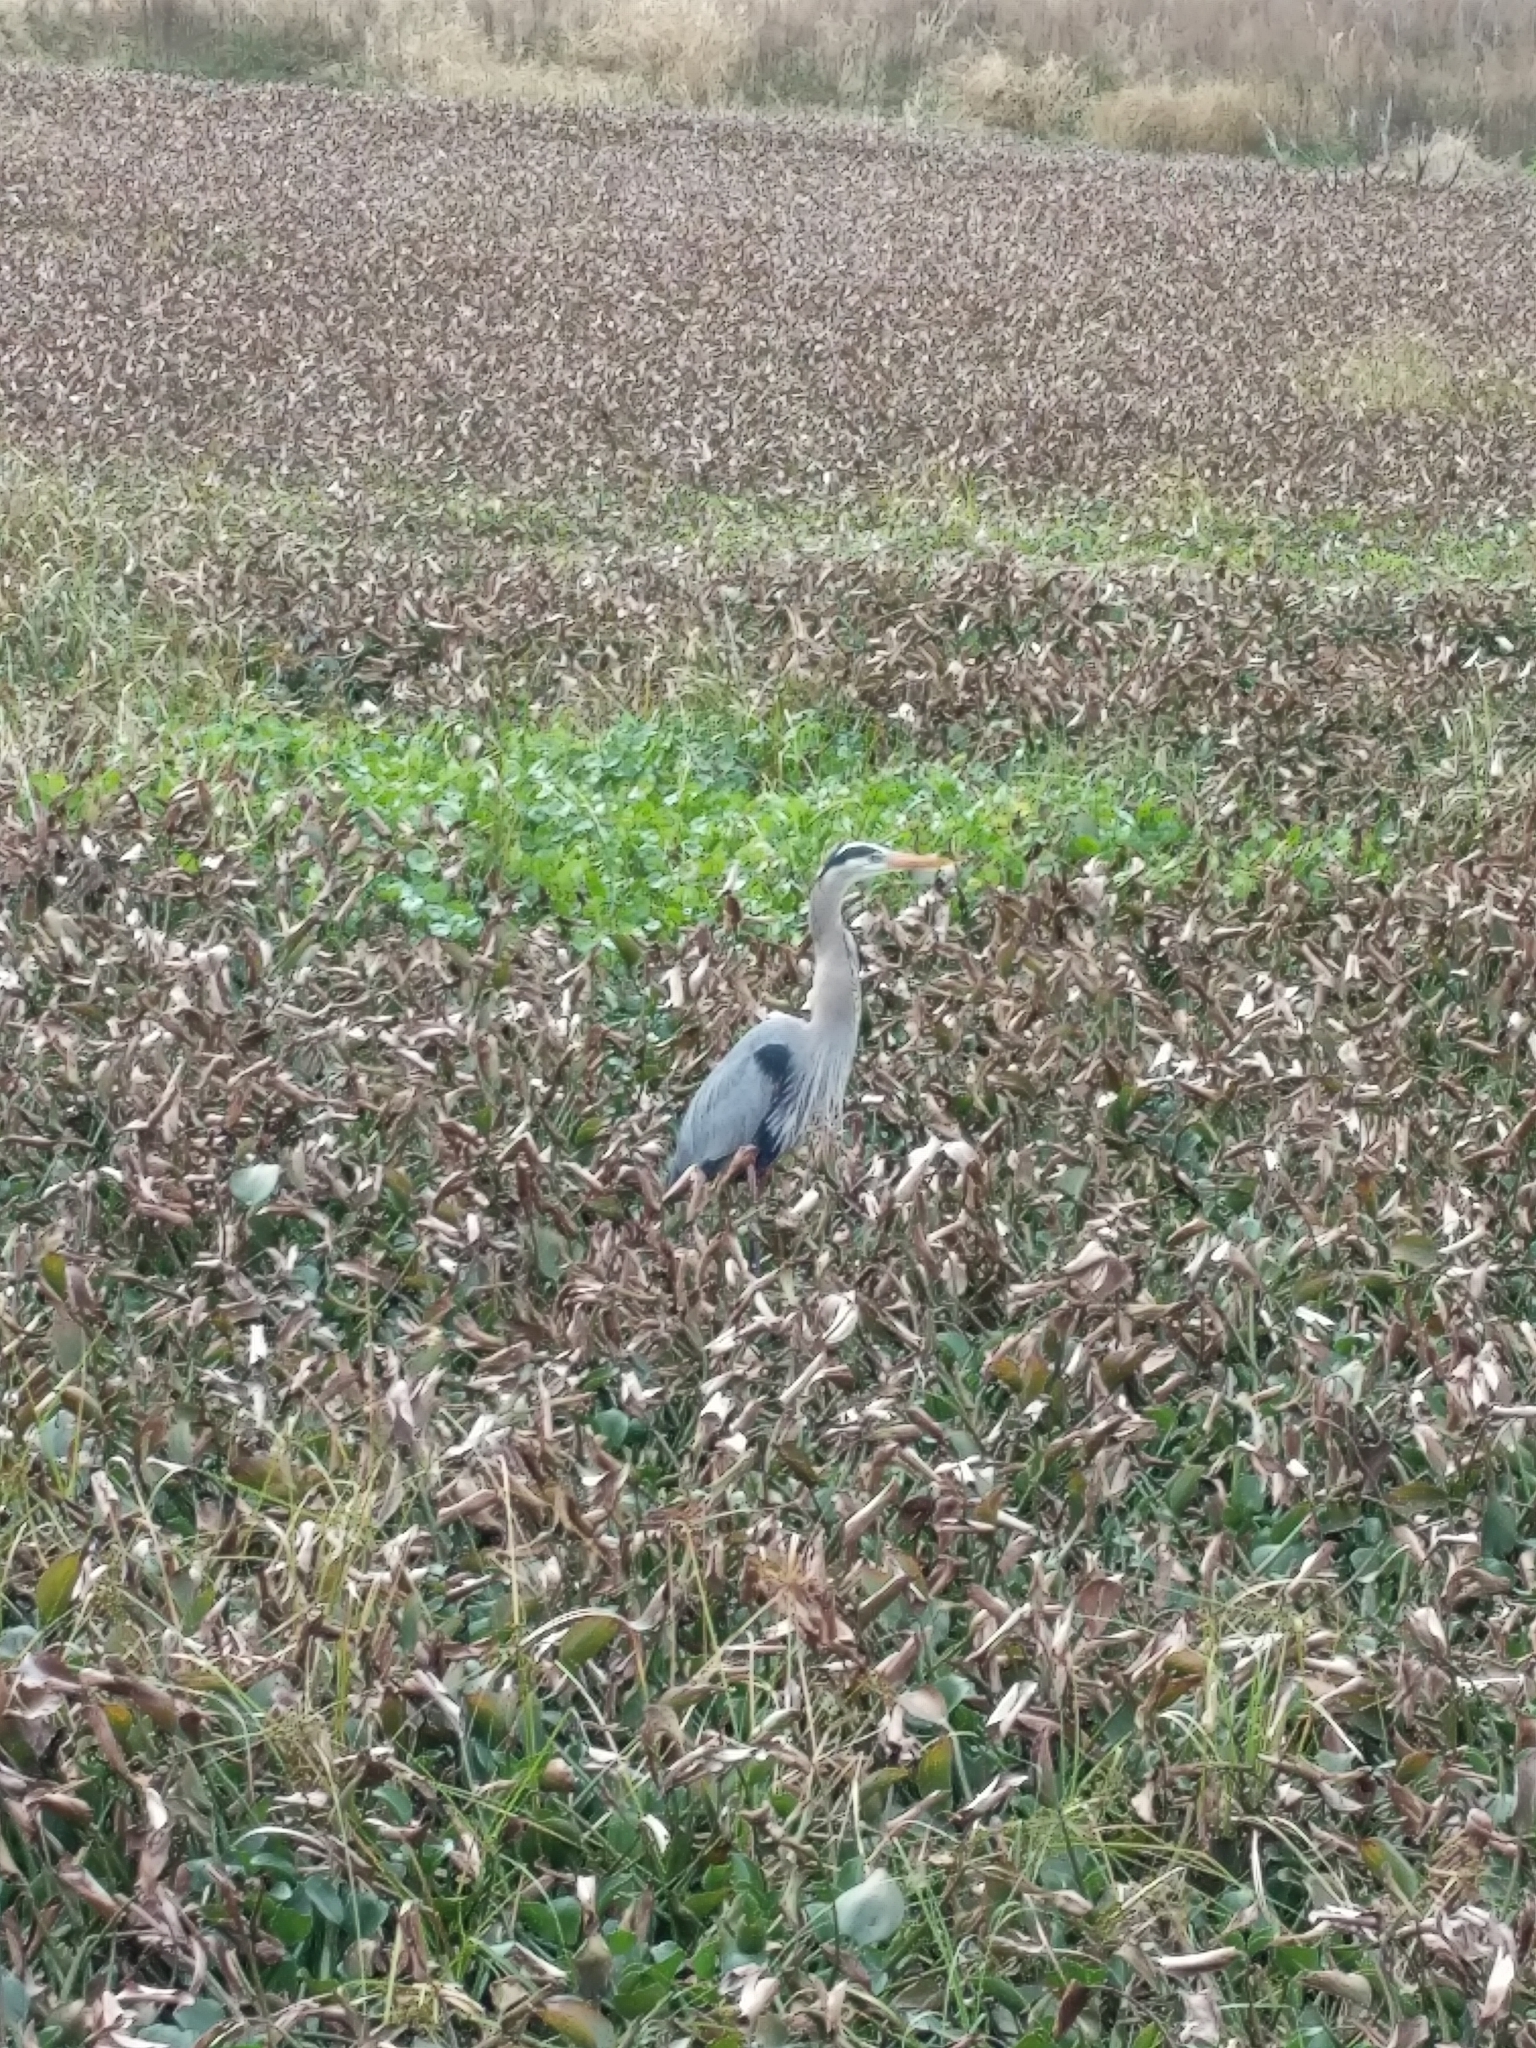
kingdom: Animalia
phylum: Chordata
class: Aves
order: Pelecaniformes
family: Ardeidae
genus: Ardea
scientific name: Ardea herodias
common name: Great blue heron
